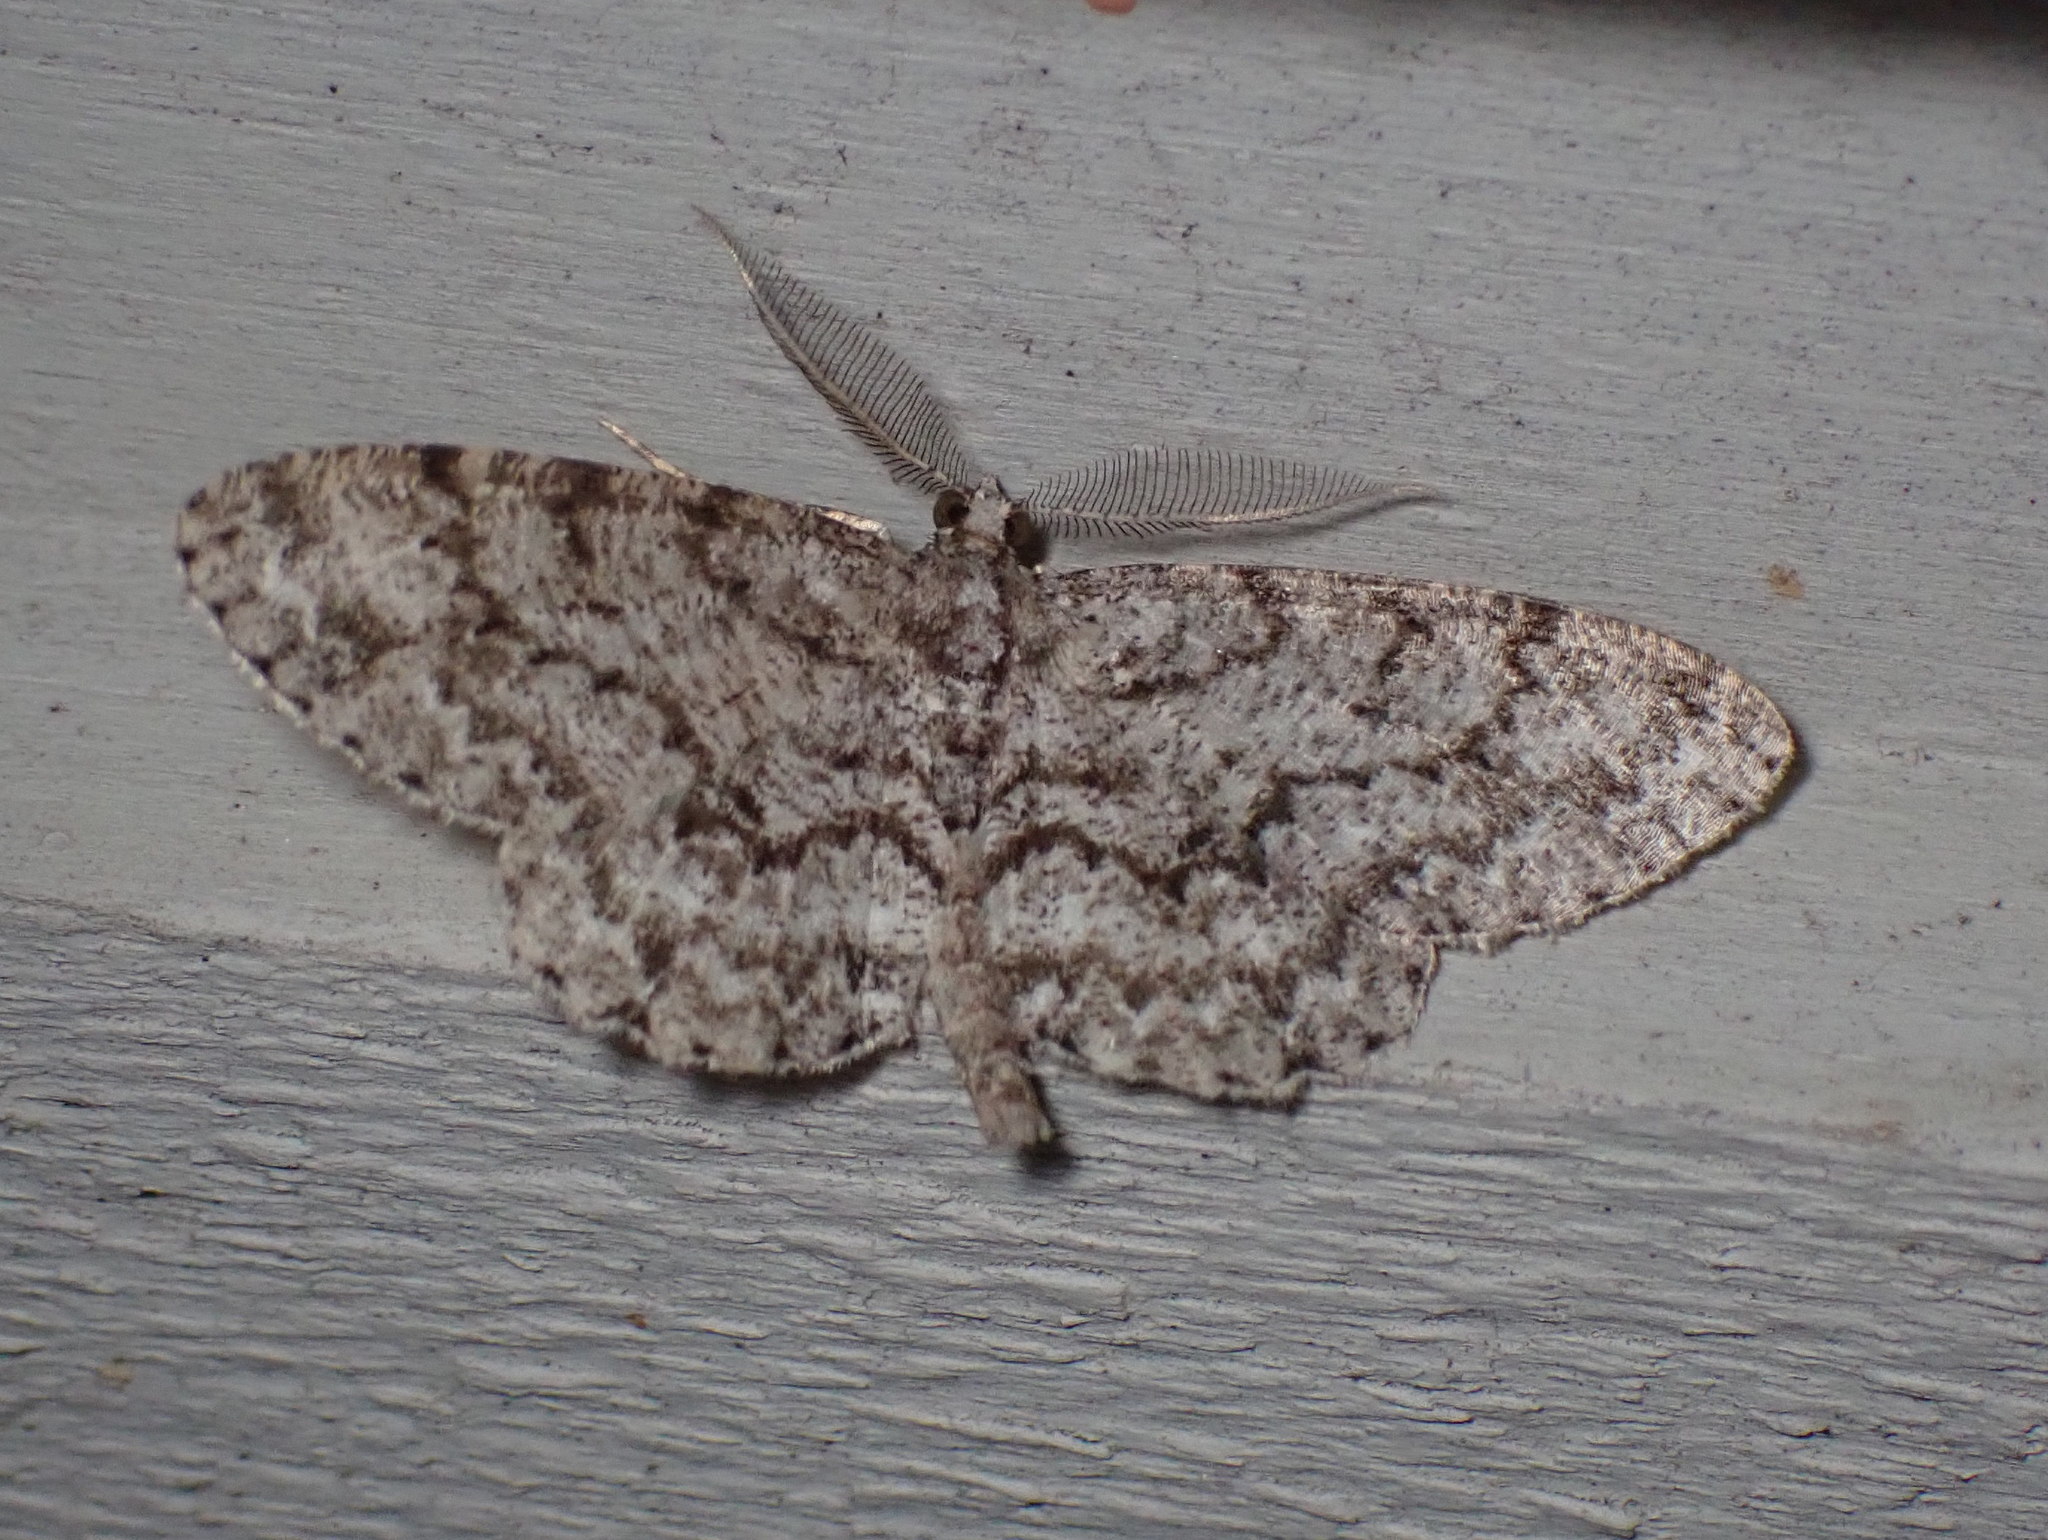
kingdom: Animalia
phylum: Arthropoda
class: Insecta
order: Lepidoptera
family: Geometridae
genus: Protoboarmia
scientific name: Protoboarmia porcelaria
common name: Porcelain gray
